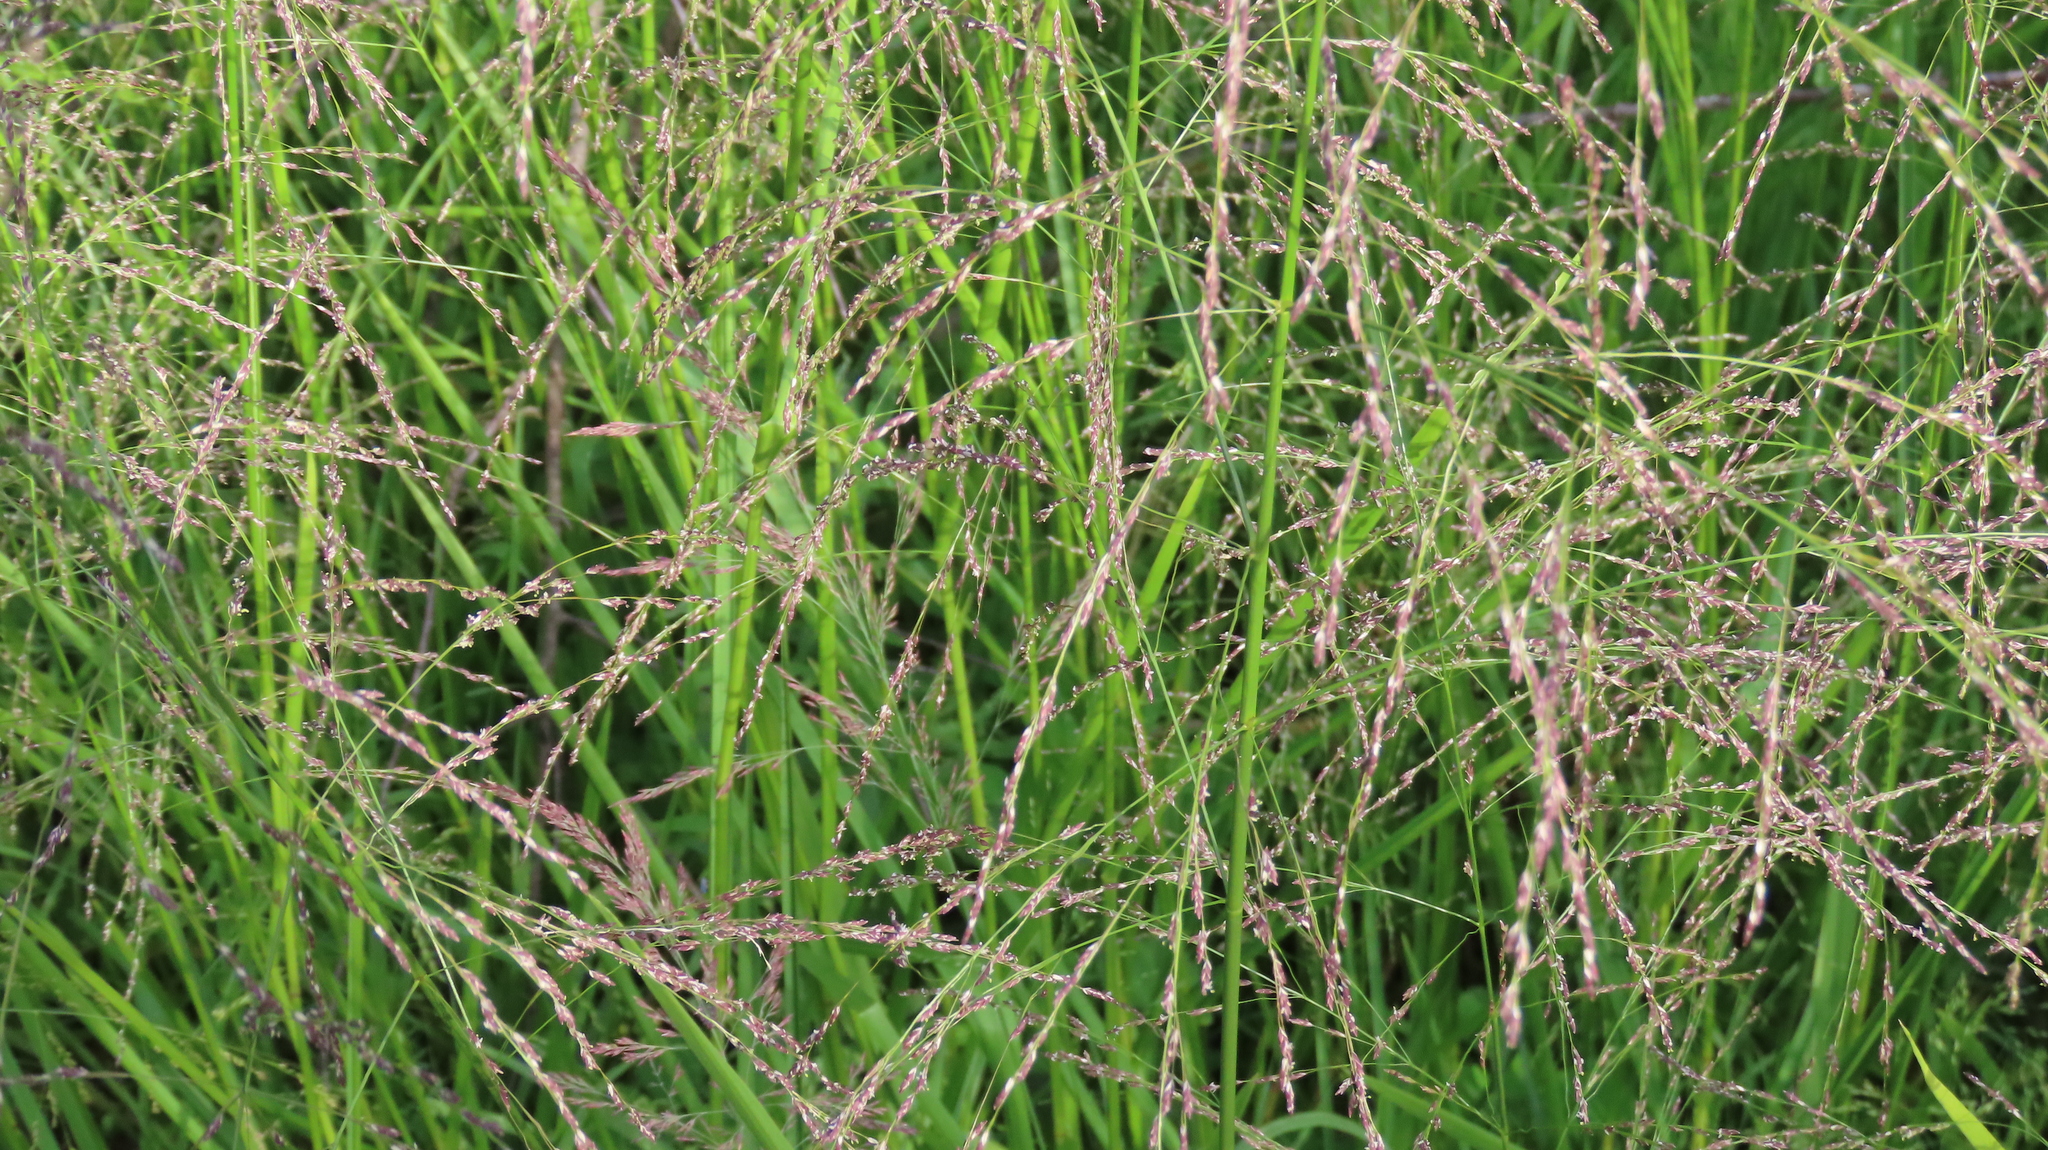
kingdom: Plantae
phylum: Tracheophyta
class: Liliopsida
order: Poales
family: Poaceae
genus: Glyceria
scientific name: Glyceria striata
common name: Fowl manna grass
